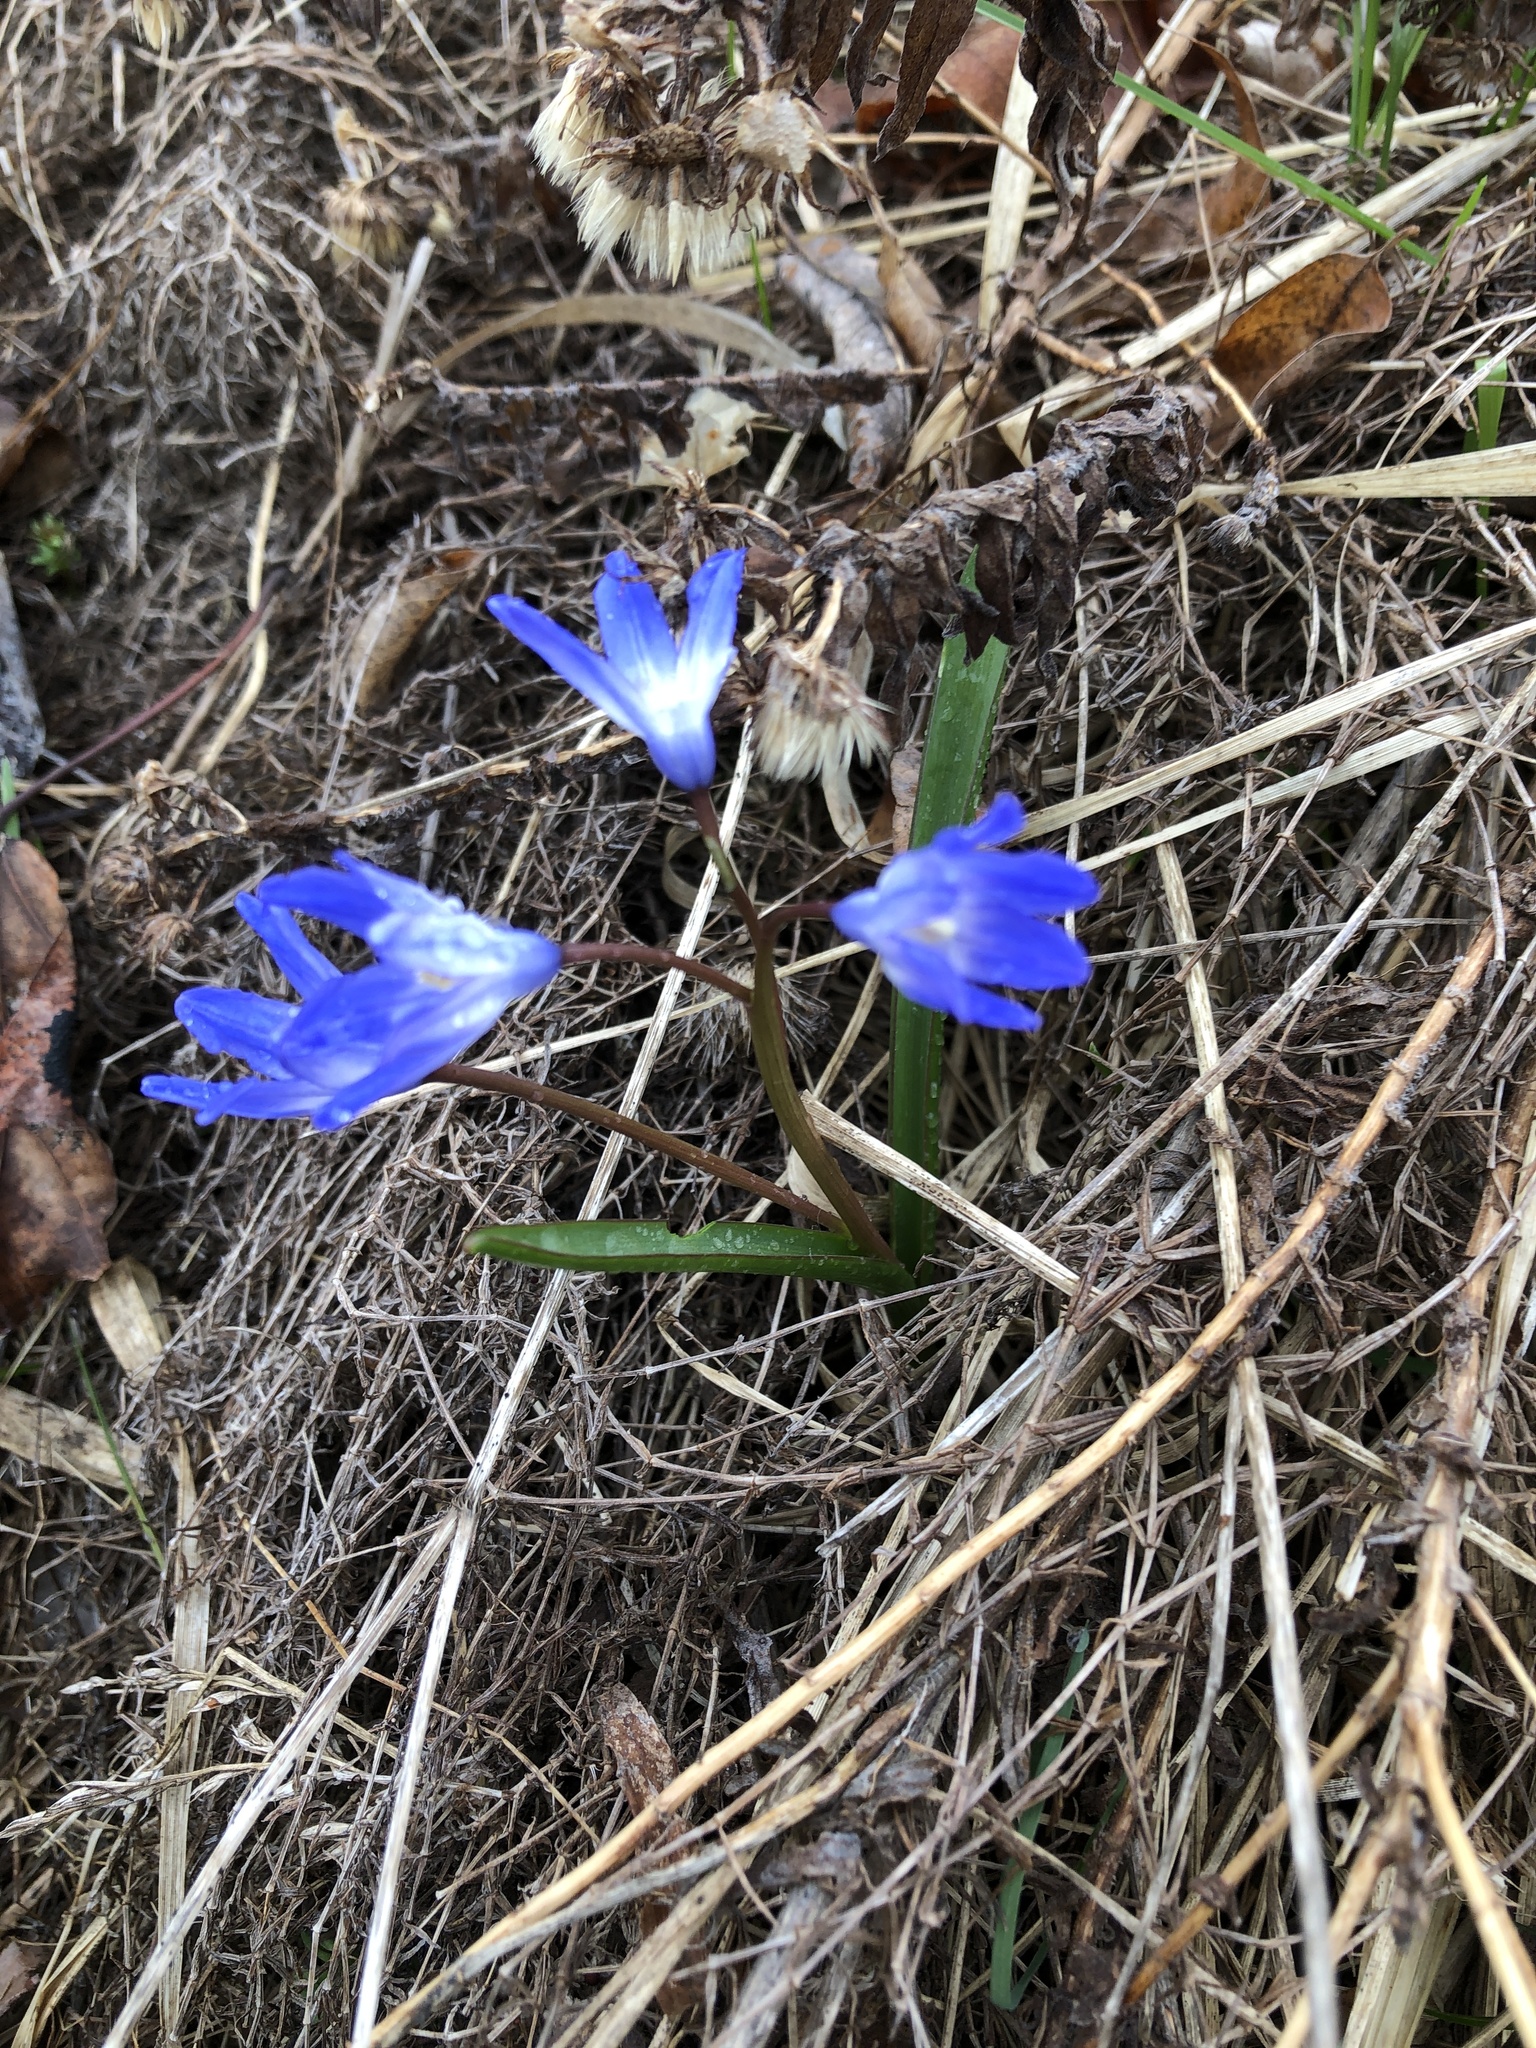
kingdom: Plantae
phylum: Tracheophyta
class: Liliopsida
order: Asparagales
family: Asparagaceae
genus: Scilla
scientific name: Scilla forbesii
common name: Glory-of-the-snow
